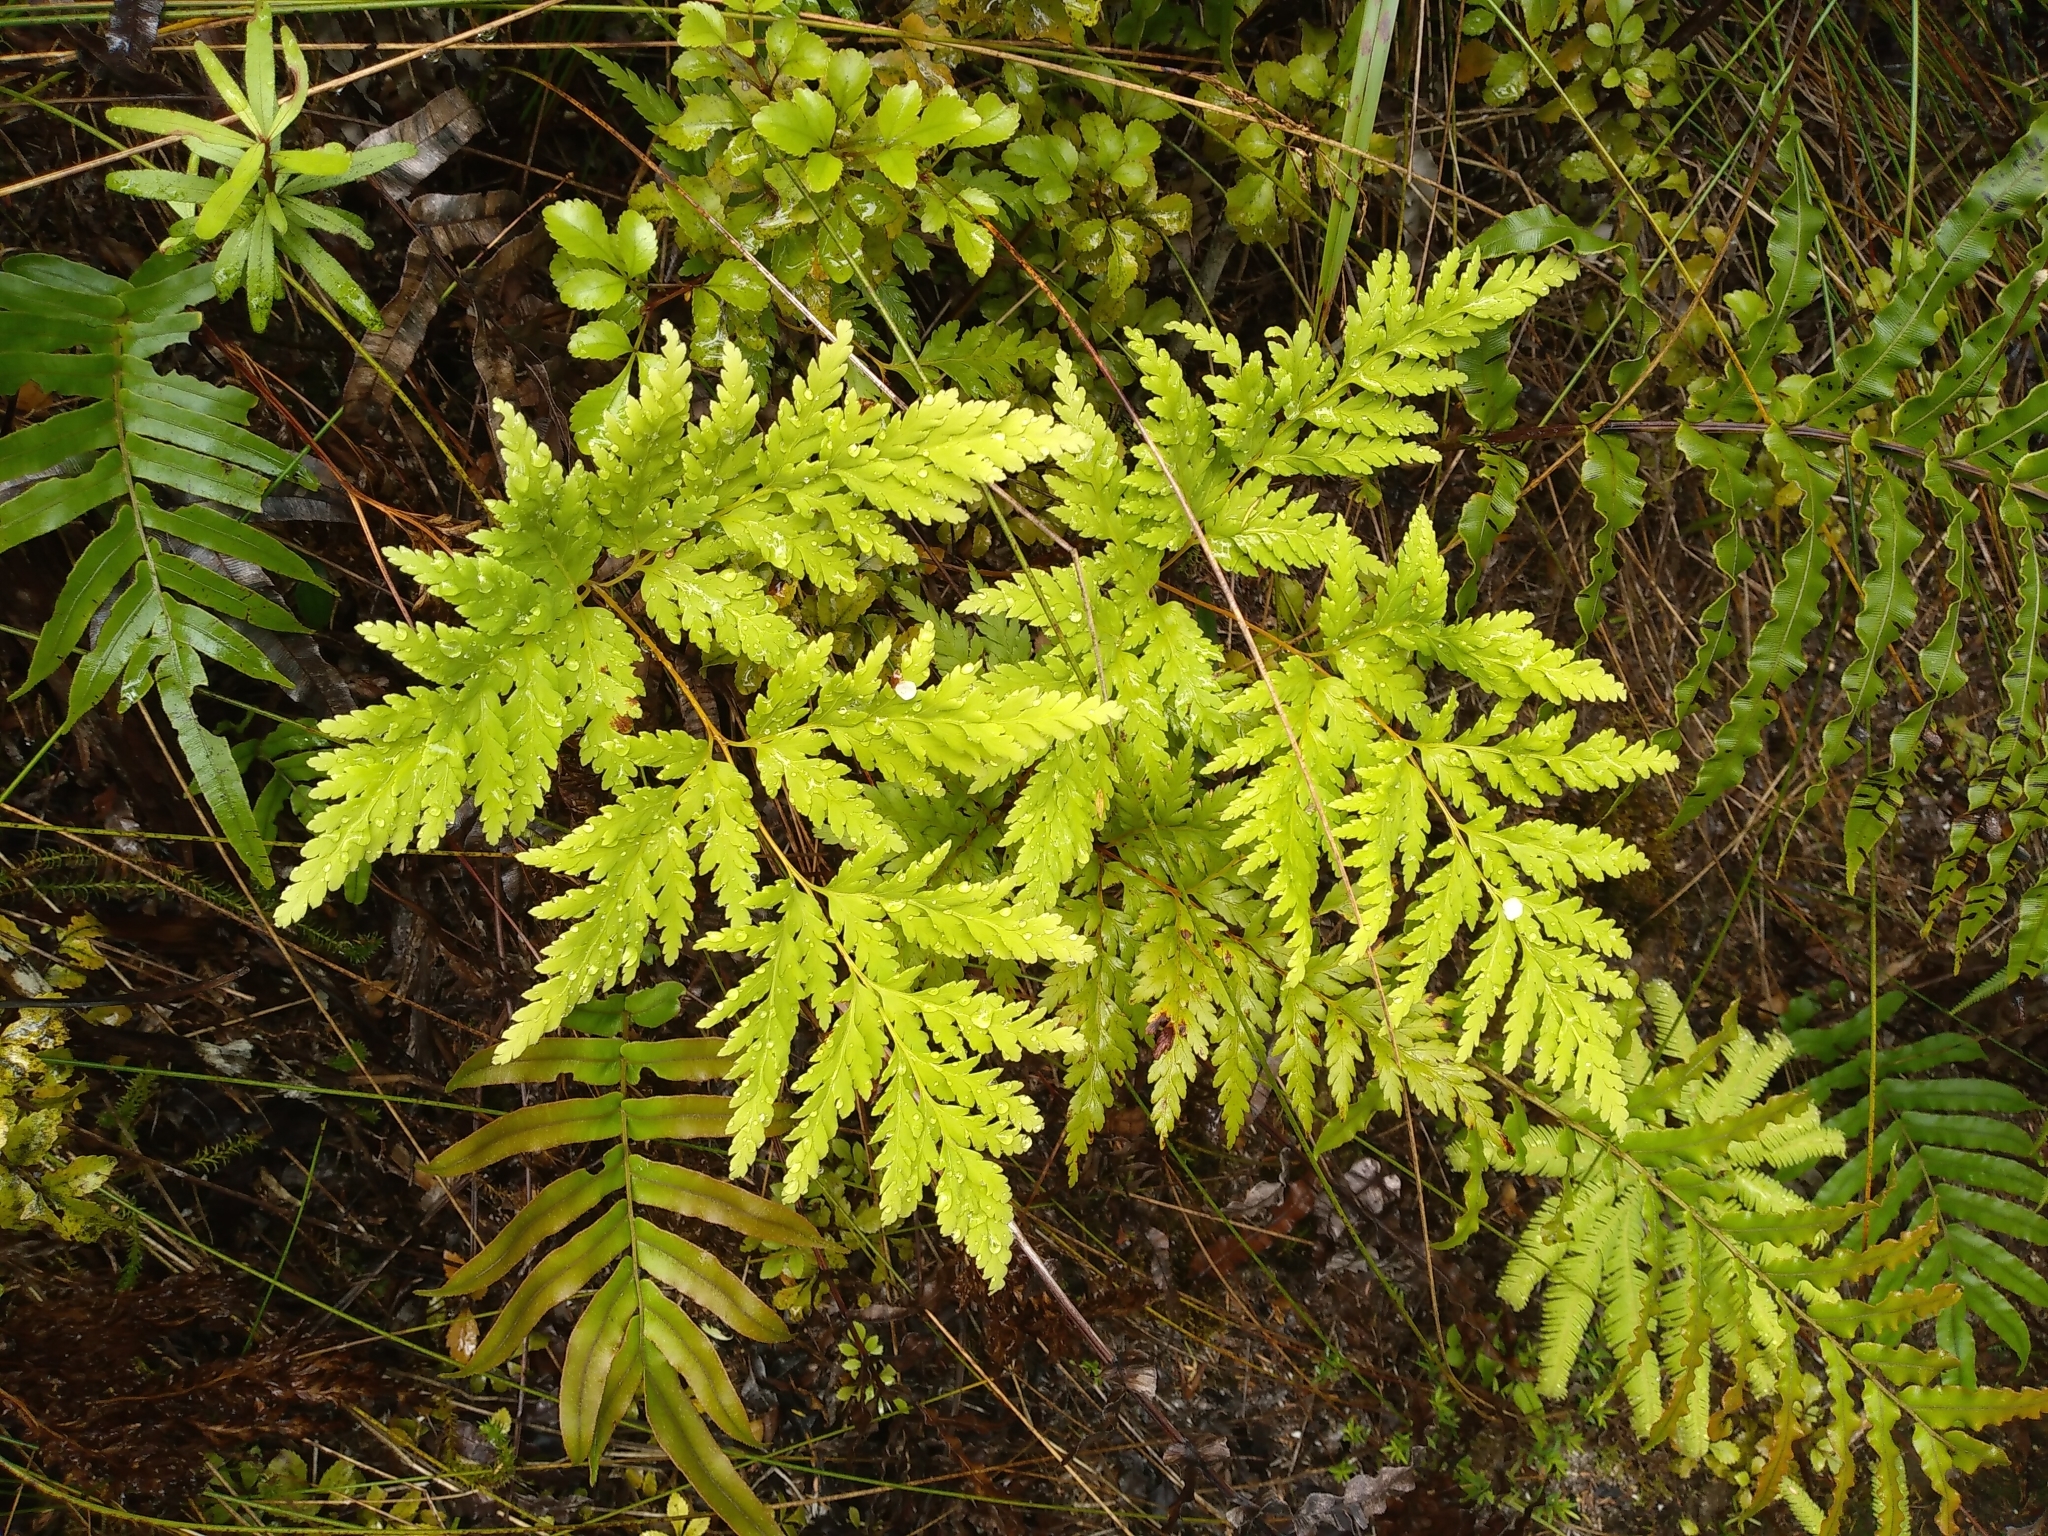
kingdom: Plantae
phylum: Tracheophyta
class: Polypodiopsida
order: Cyatheales
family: Loxsomataceae
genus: Loxsoma
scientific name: Loxsoma cunninghamii
